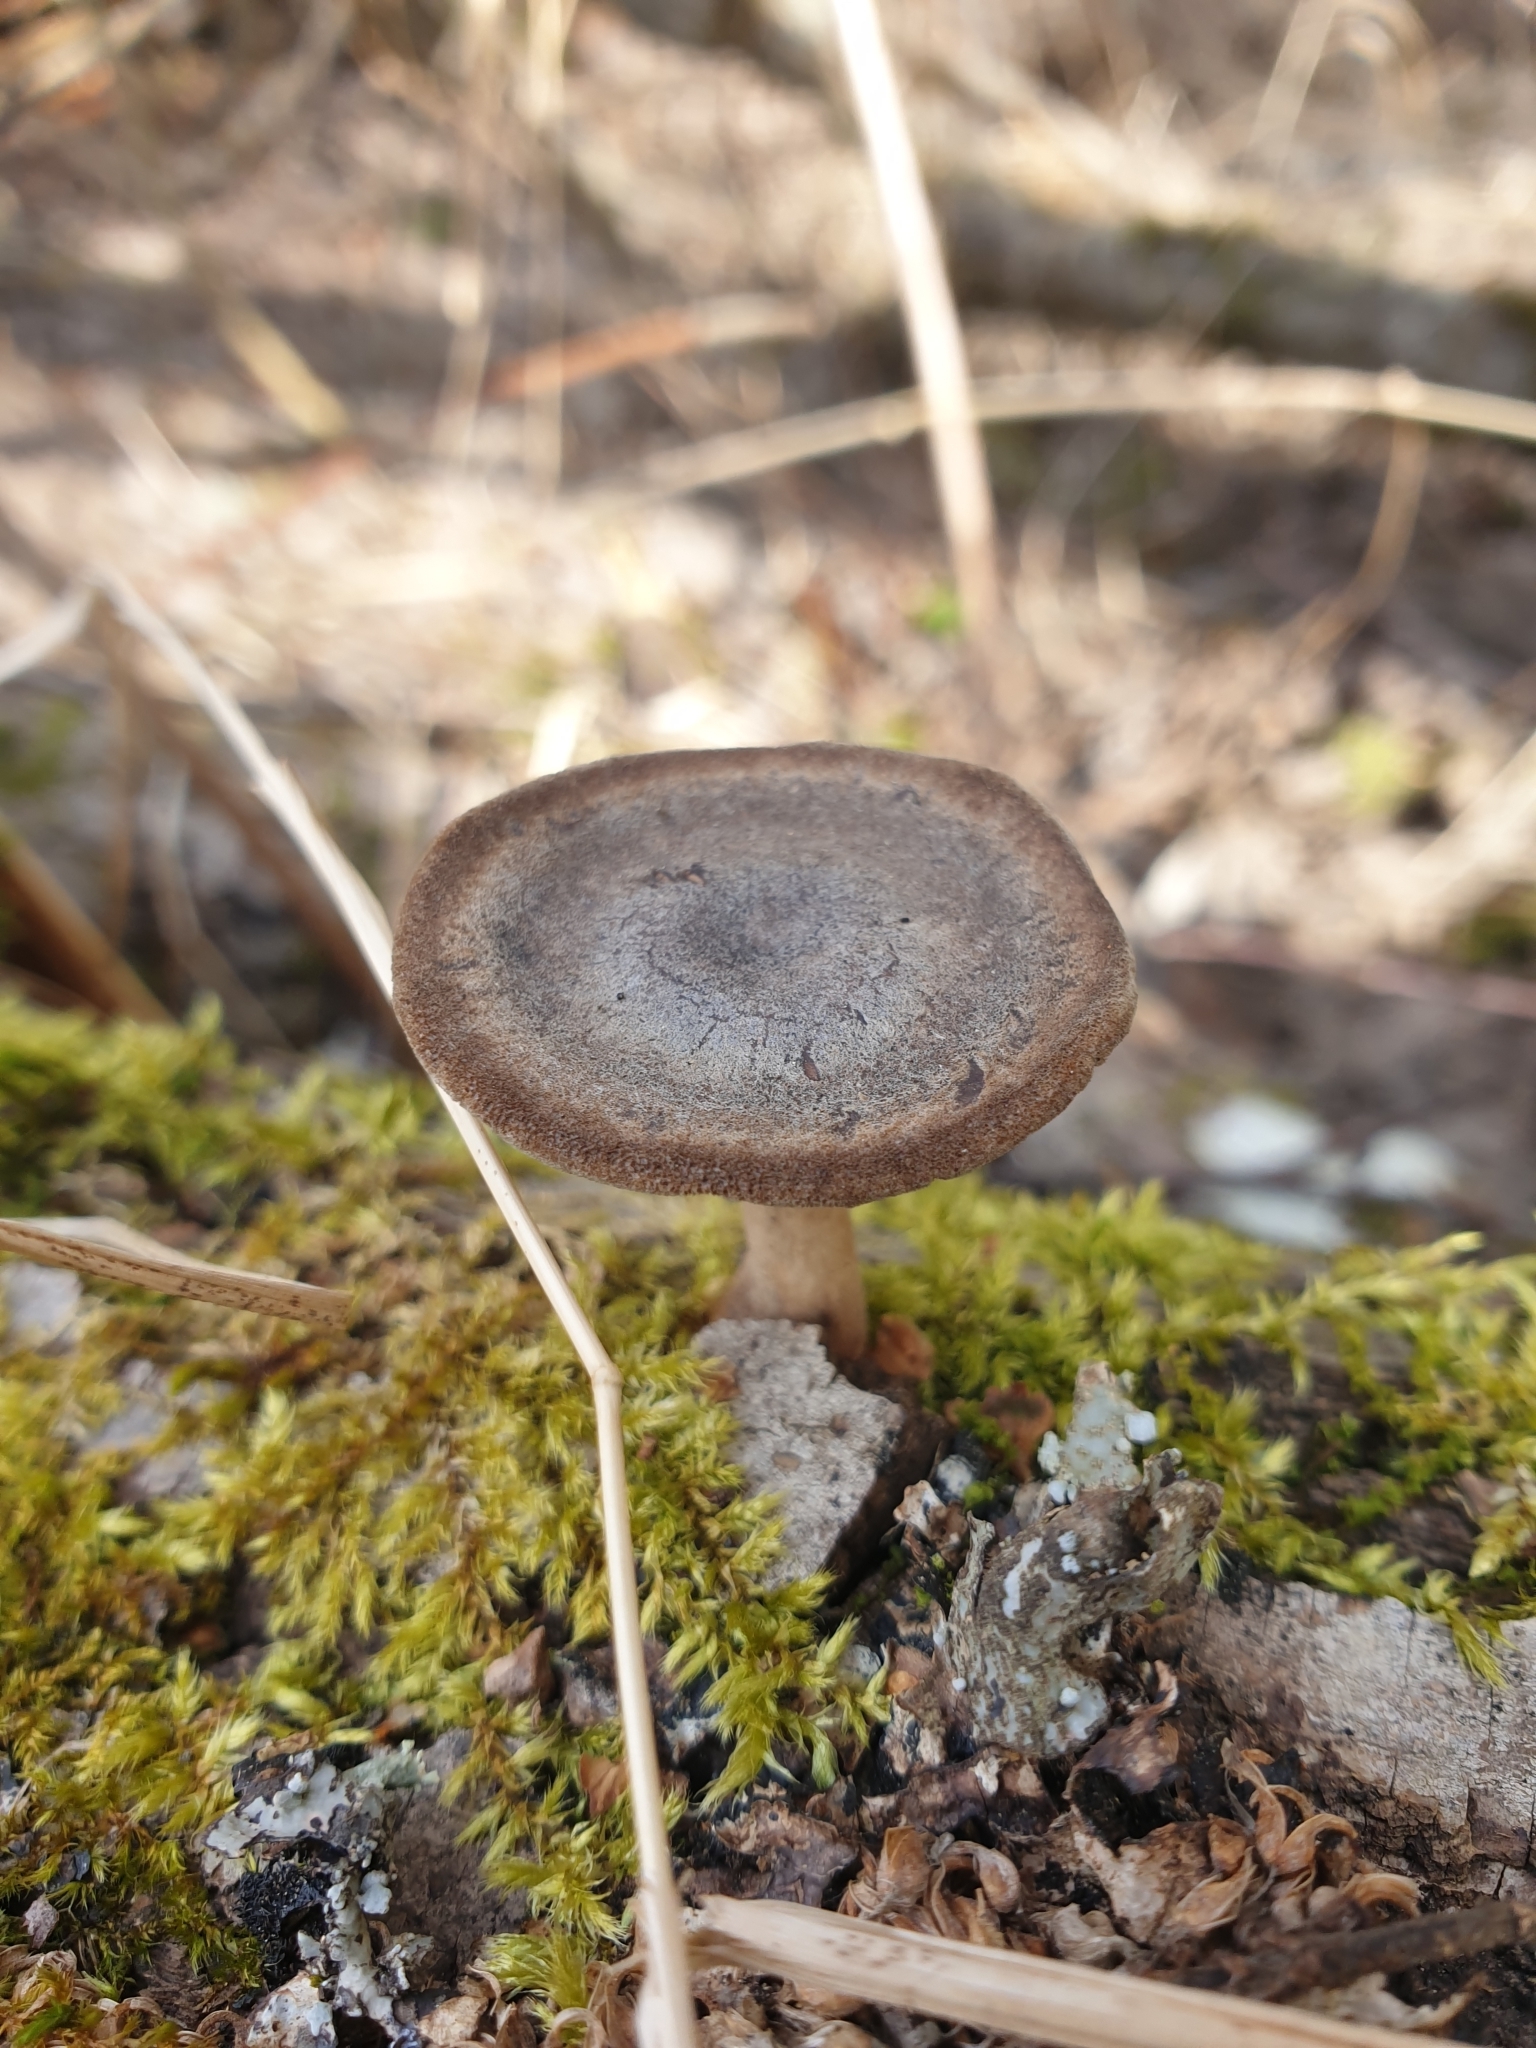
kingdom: Fungi
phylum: Basidiomycota
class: Agaricomycetes
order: Polyporales
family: Polyporaceae
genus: Lentinus
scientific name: Lentinus brumalis
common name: Winter polypore
